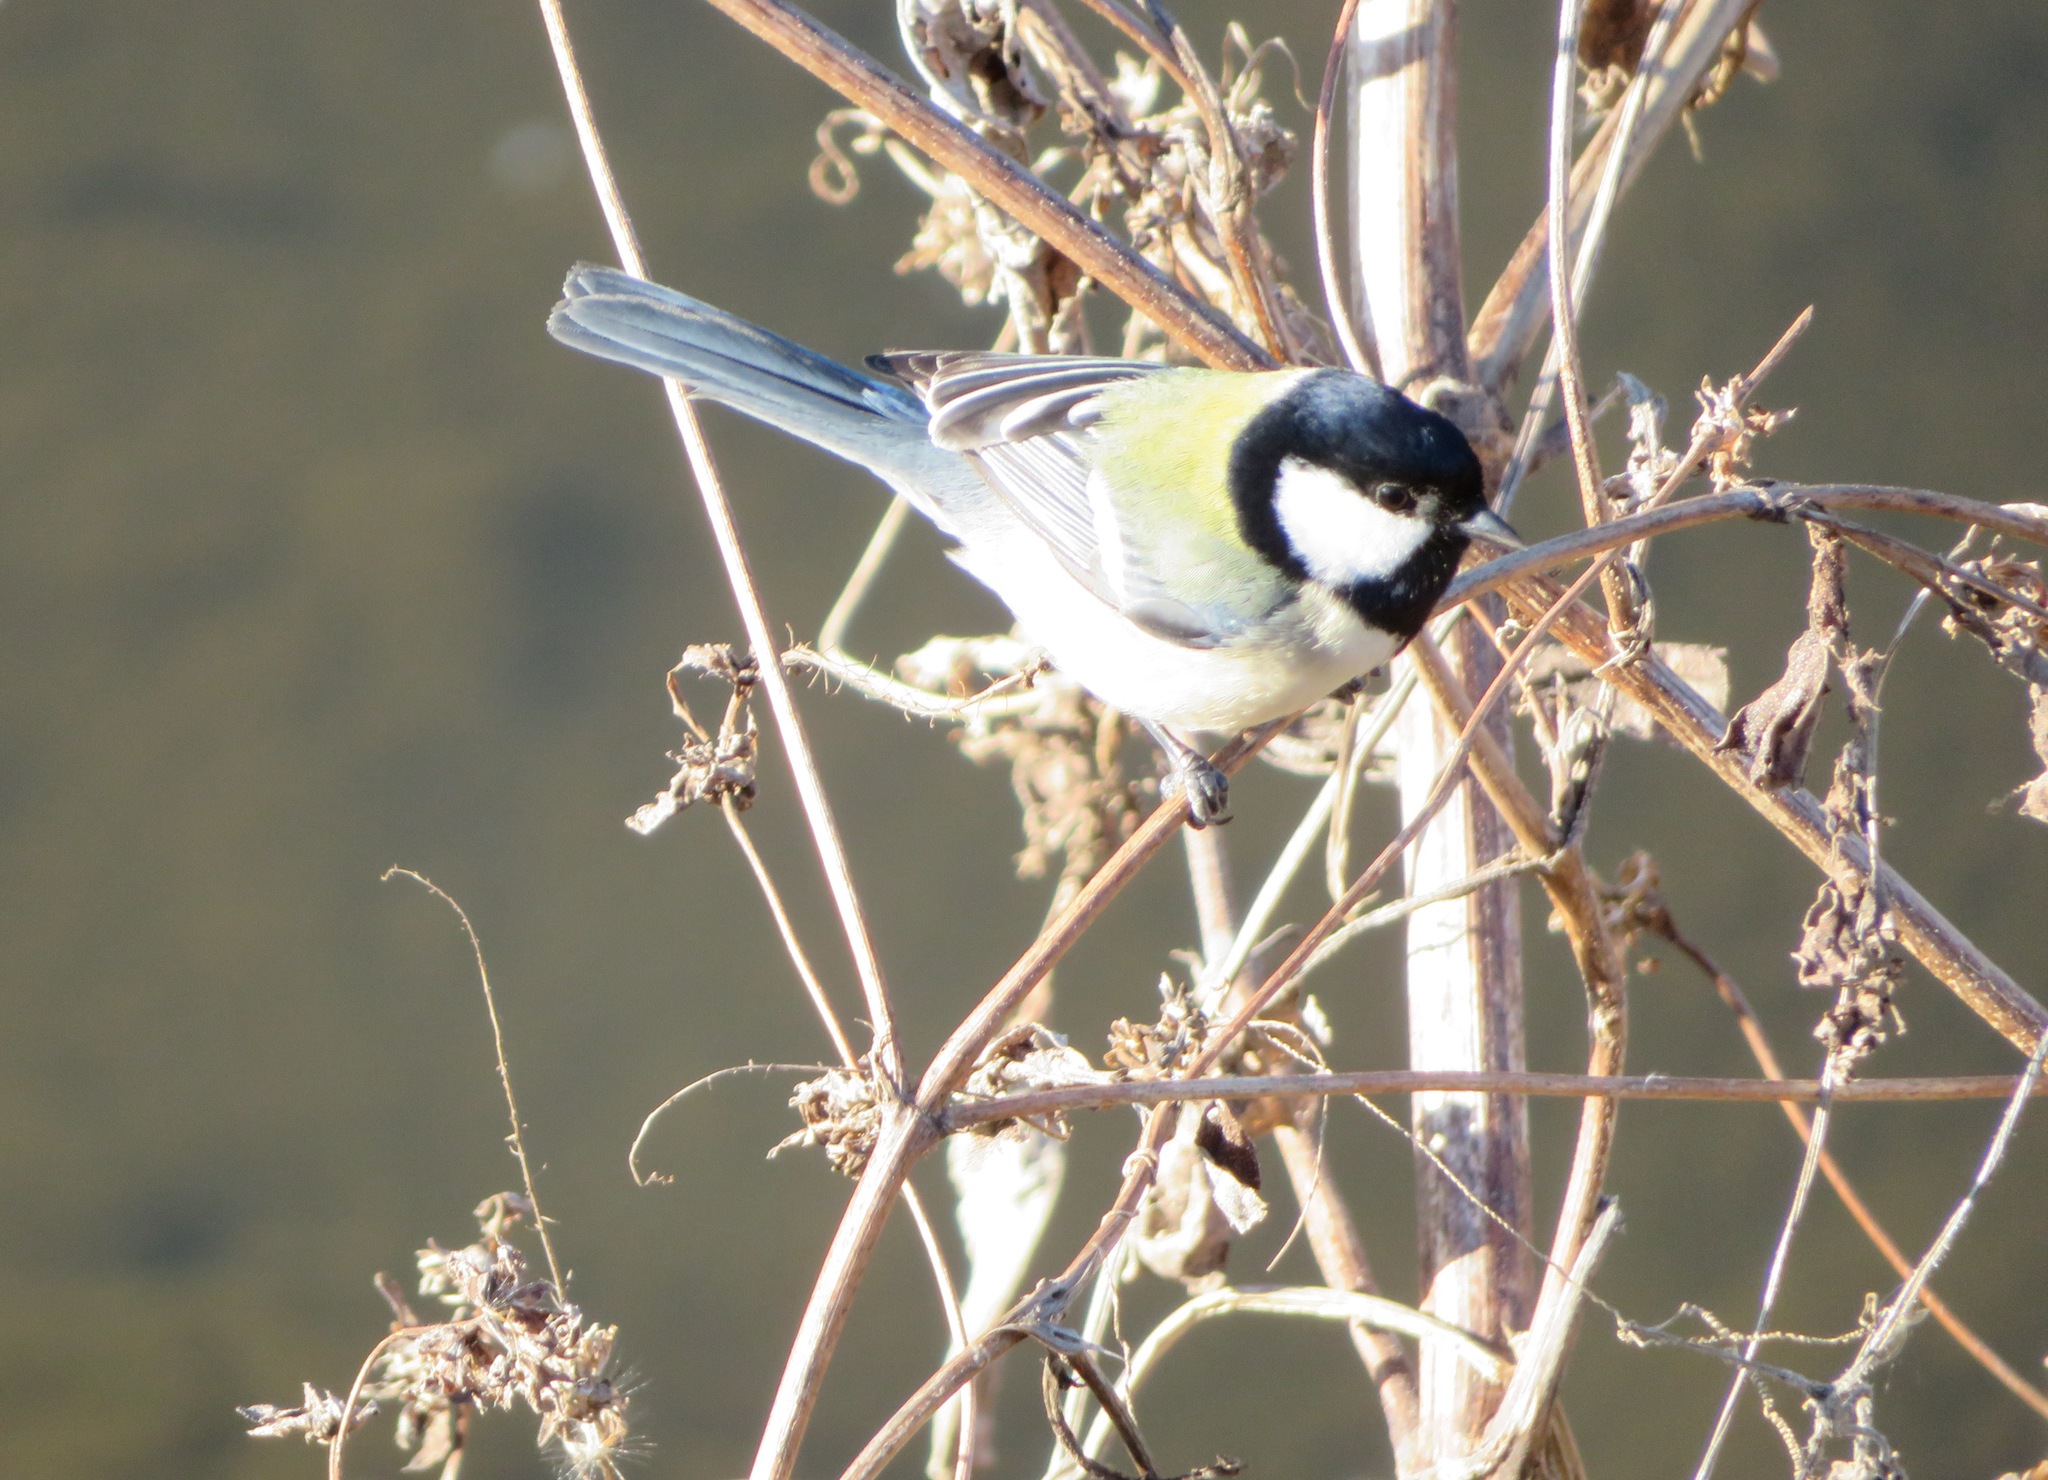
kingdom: Animalia
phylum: Chordata
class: Aves
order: Passeriformes
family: Paridae
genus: Parus
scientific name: Parus minor
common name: Japanese tit
